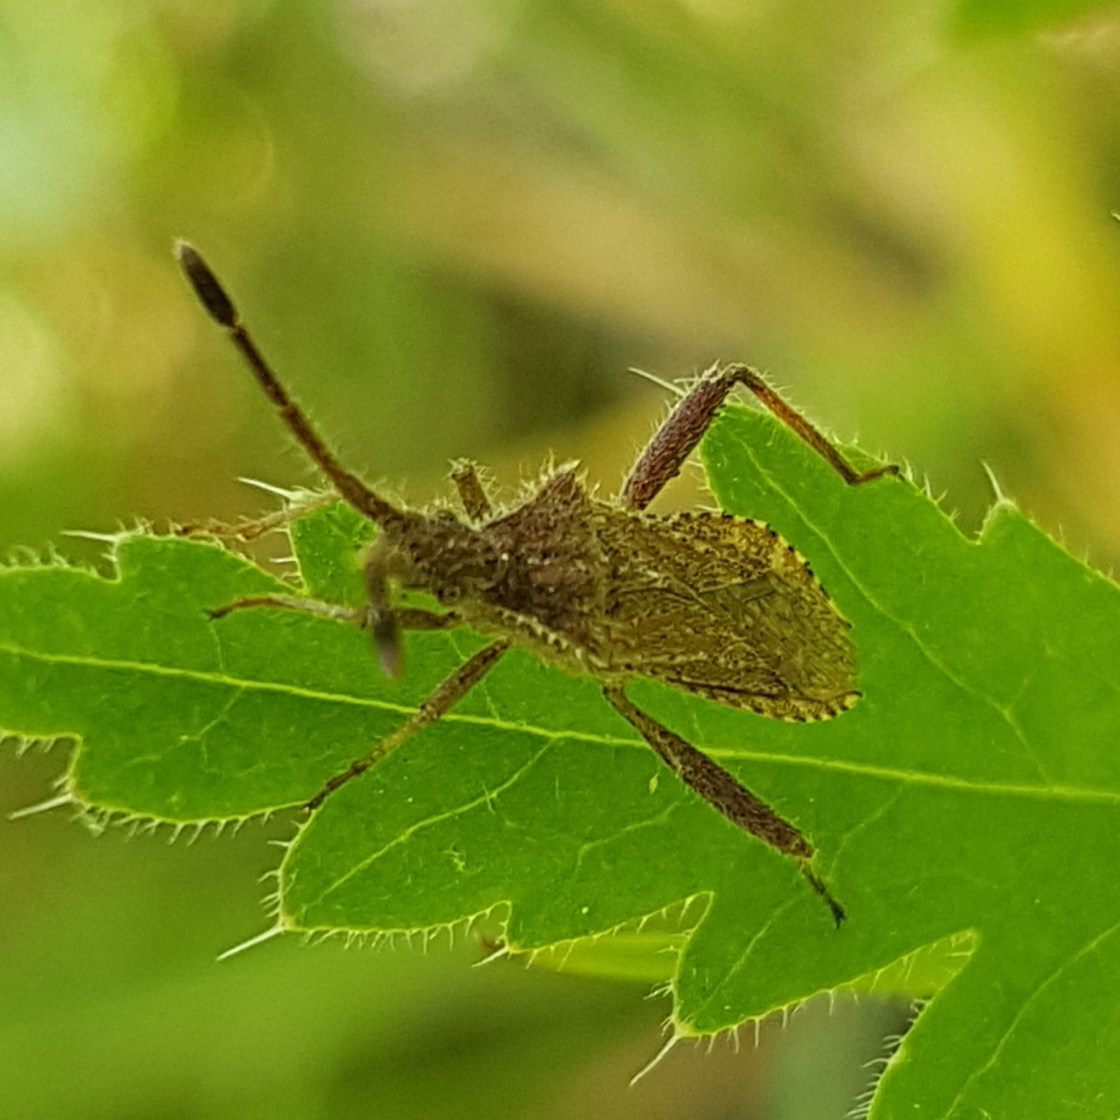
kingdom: Animalia
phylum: Arthropoda
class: Insecta
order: Hemiptera
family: Coreidae
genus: Coriomeris
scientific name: Coriomeris hirticornis
